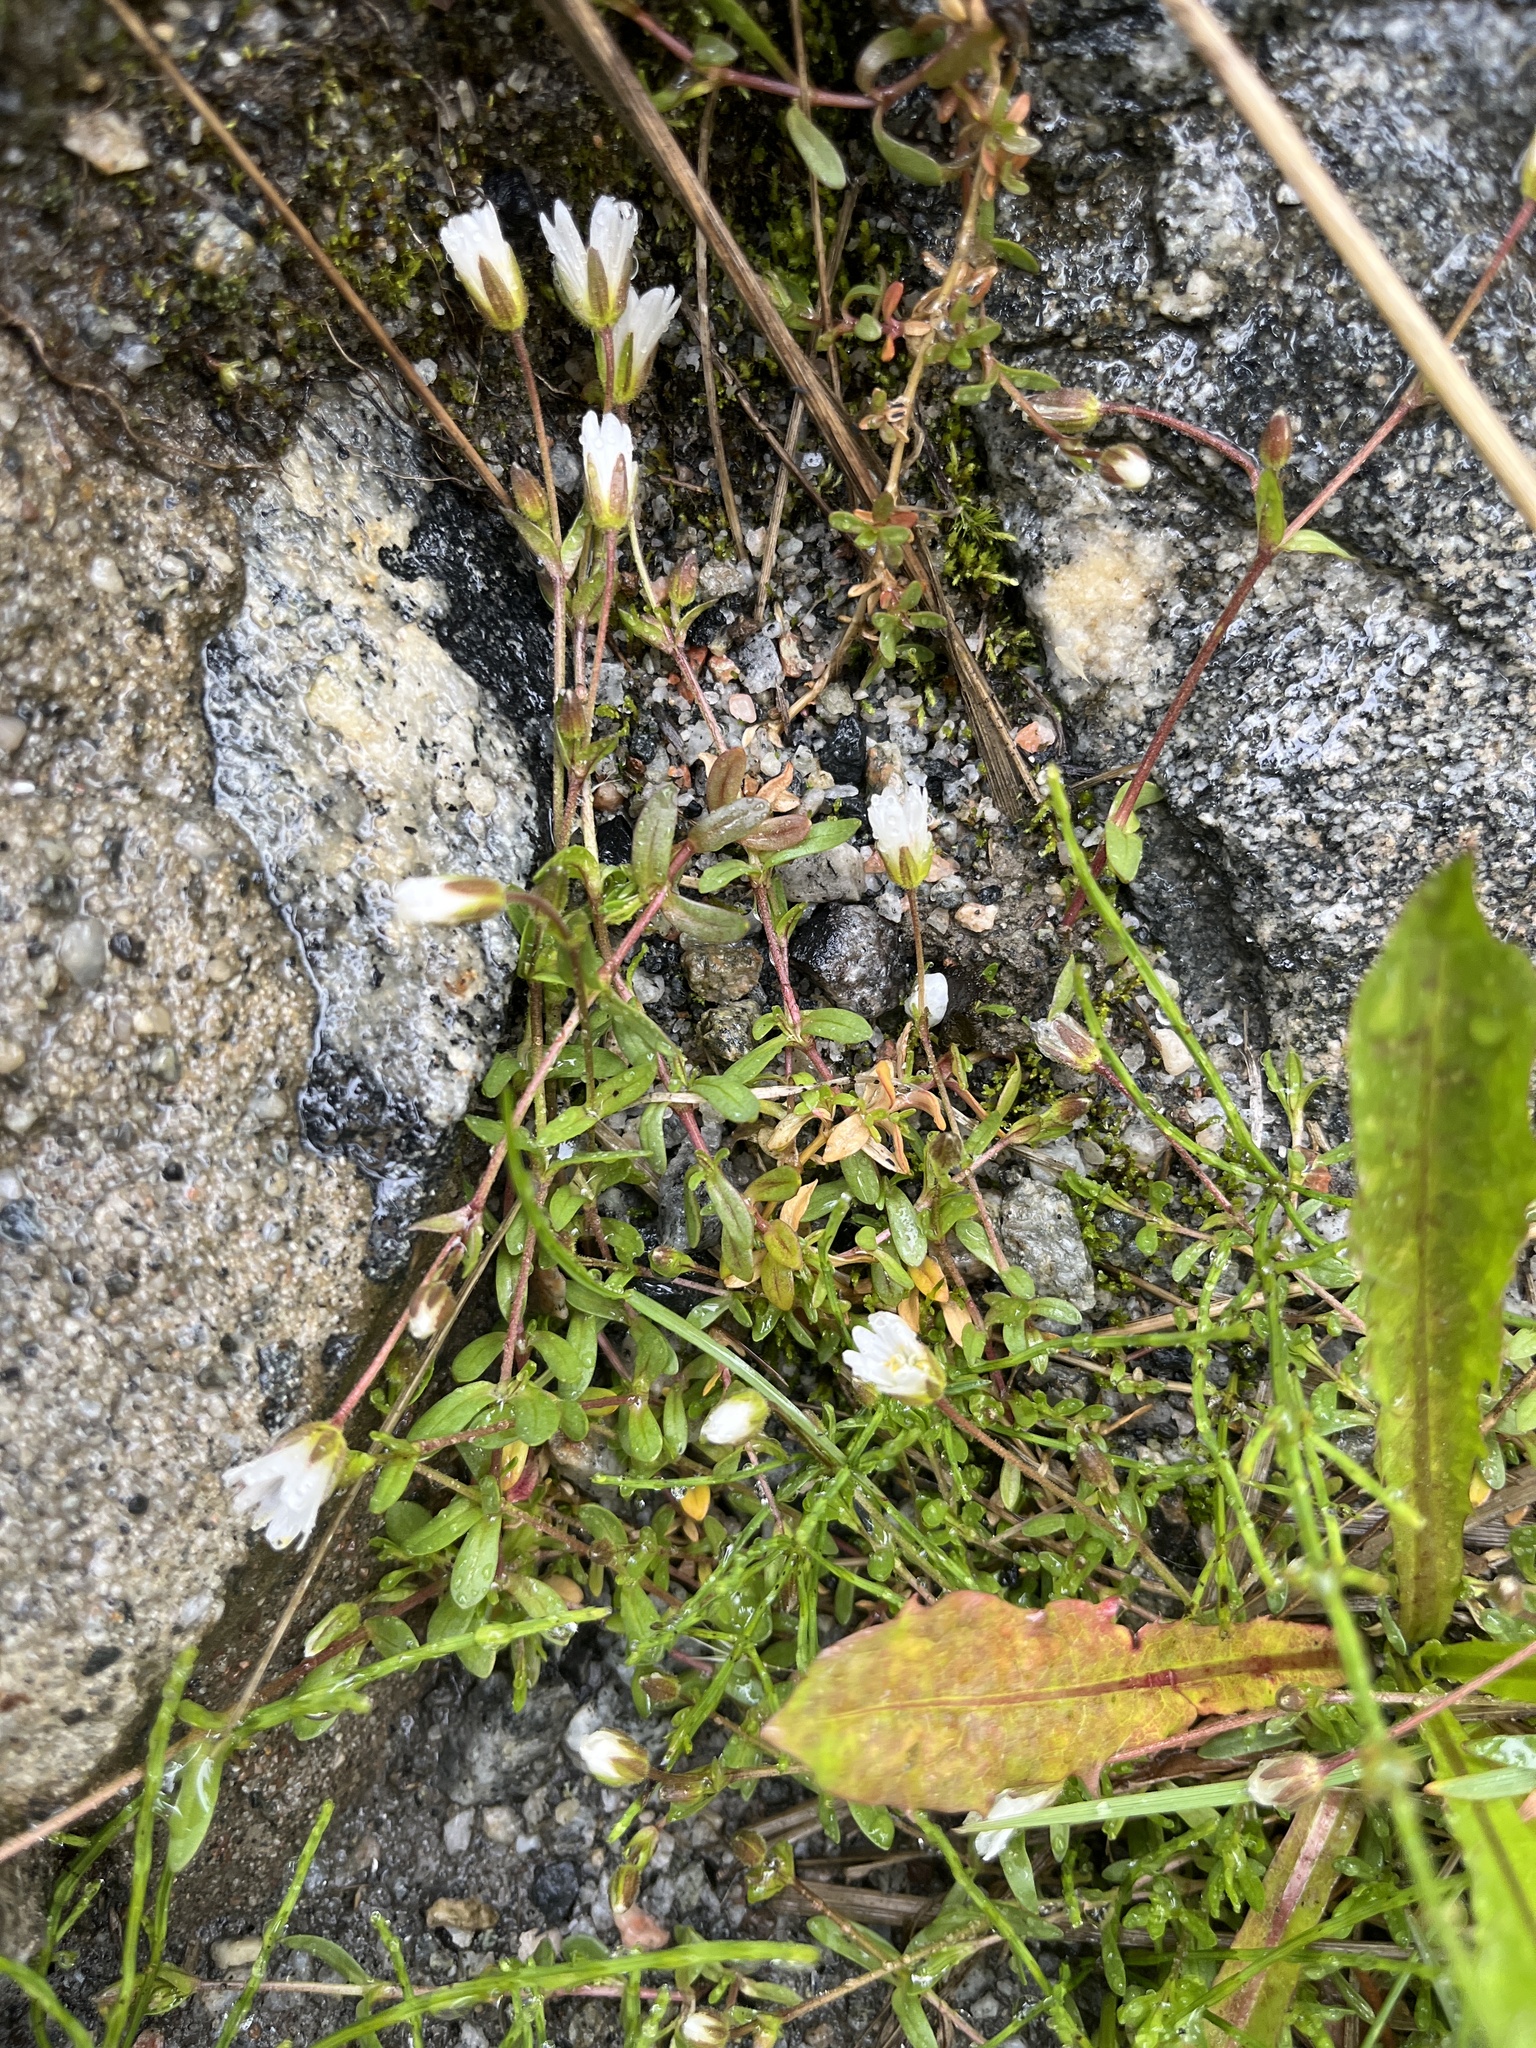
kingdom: Plantae
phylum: Tracheophyta
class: Magnoliopsida
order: Caryophyllales
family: Caryophyllaceae
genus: Dichodon
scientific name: Dichodon cerastoides
